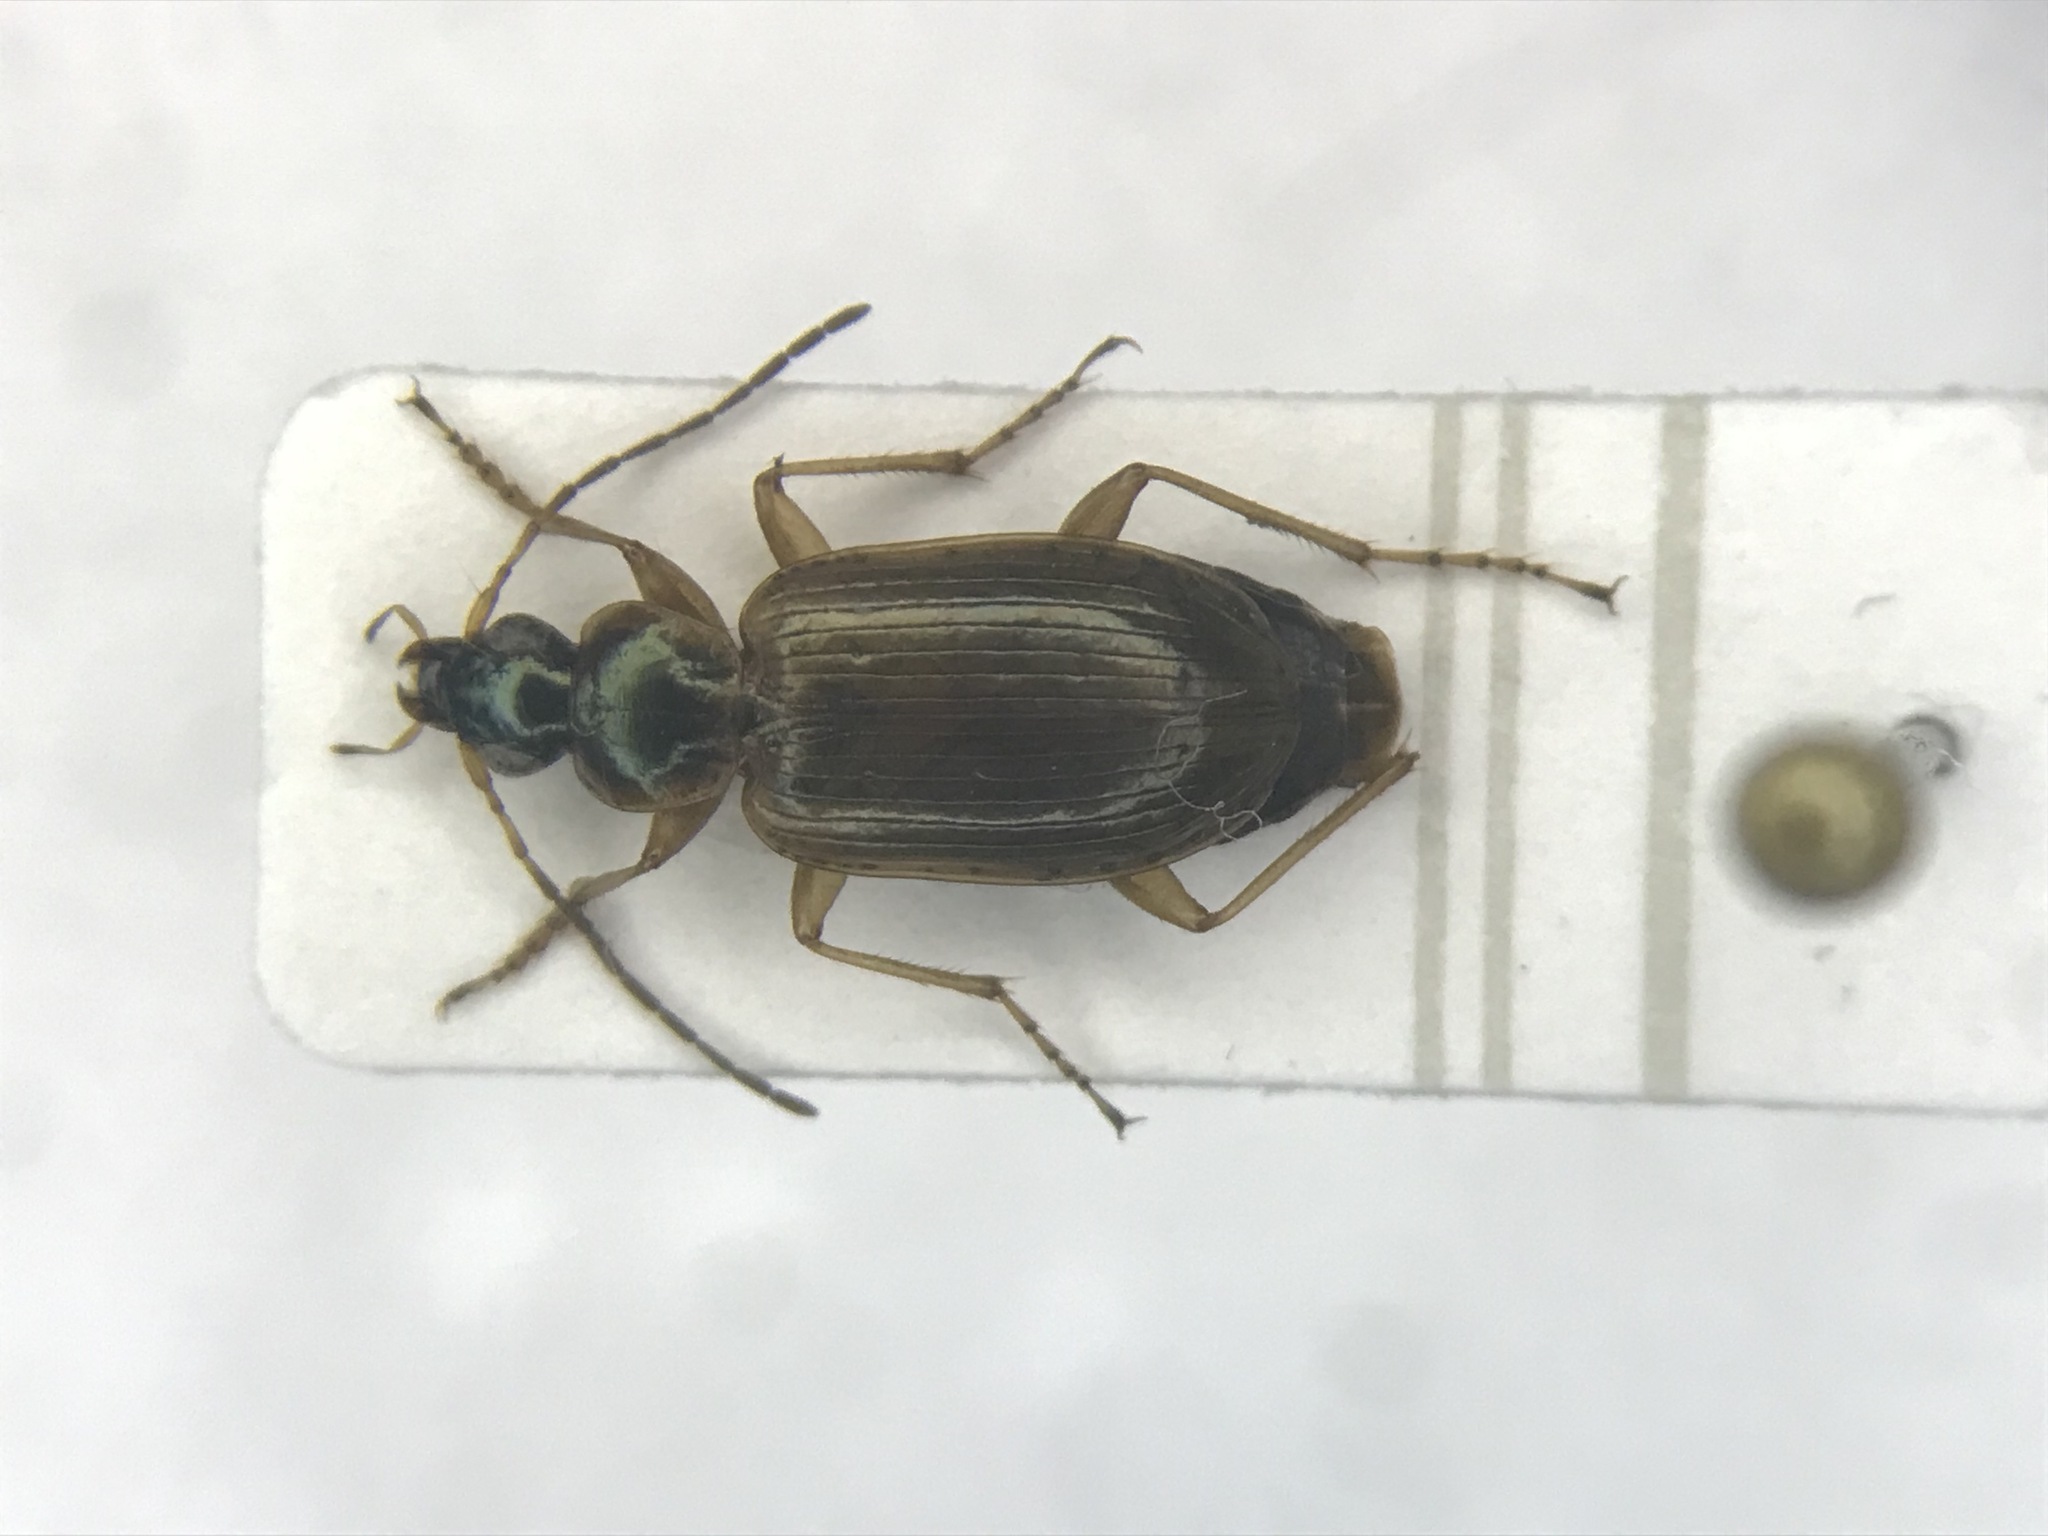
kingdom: Animalia
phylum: Arthropoda
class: Insecta
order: Coleoptera
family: Carabidae
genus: Agonum
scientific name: Agonum anchomenoides
